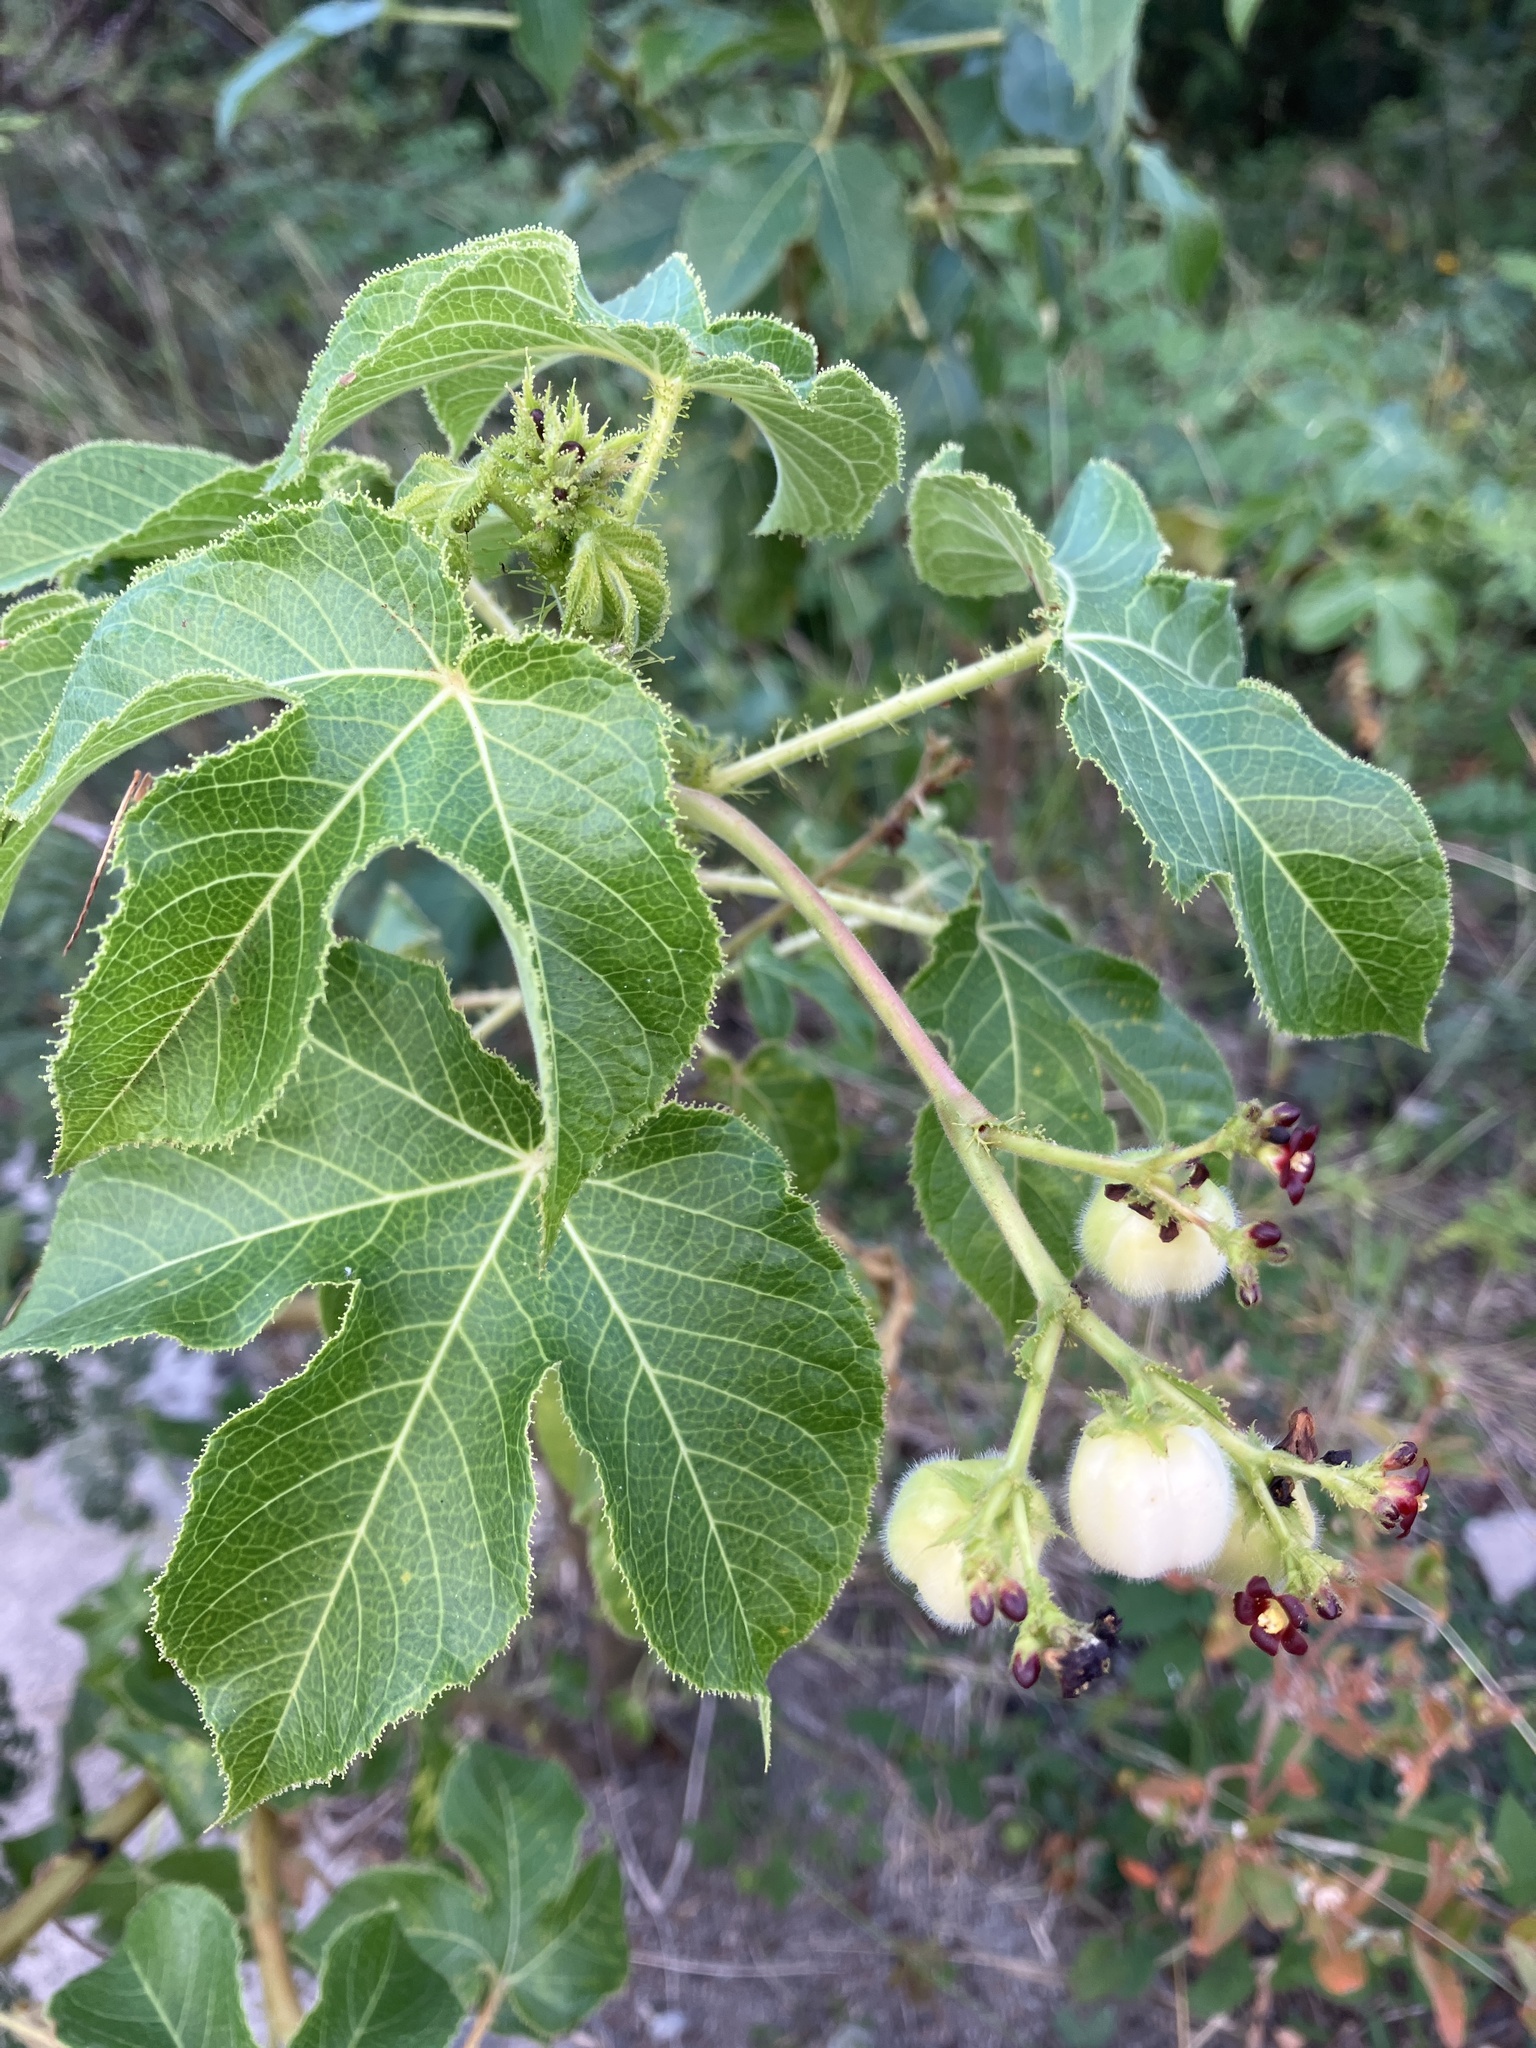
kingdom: Plantae
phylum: Tracheophyta
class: Magnoliopsida
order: Malpighiales
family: Euphorbiaceae
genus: Jatropha
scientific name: Jatropha gossypiifolia
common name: Bellyache bush
